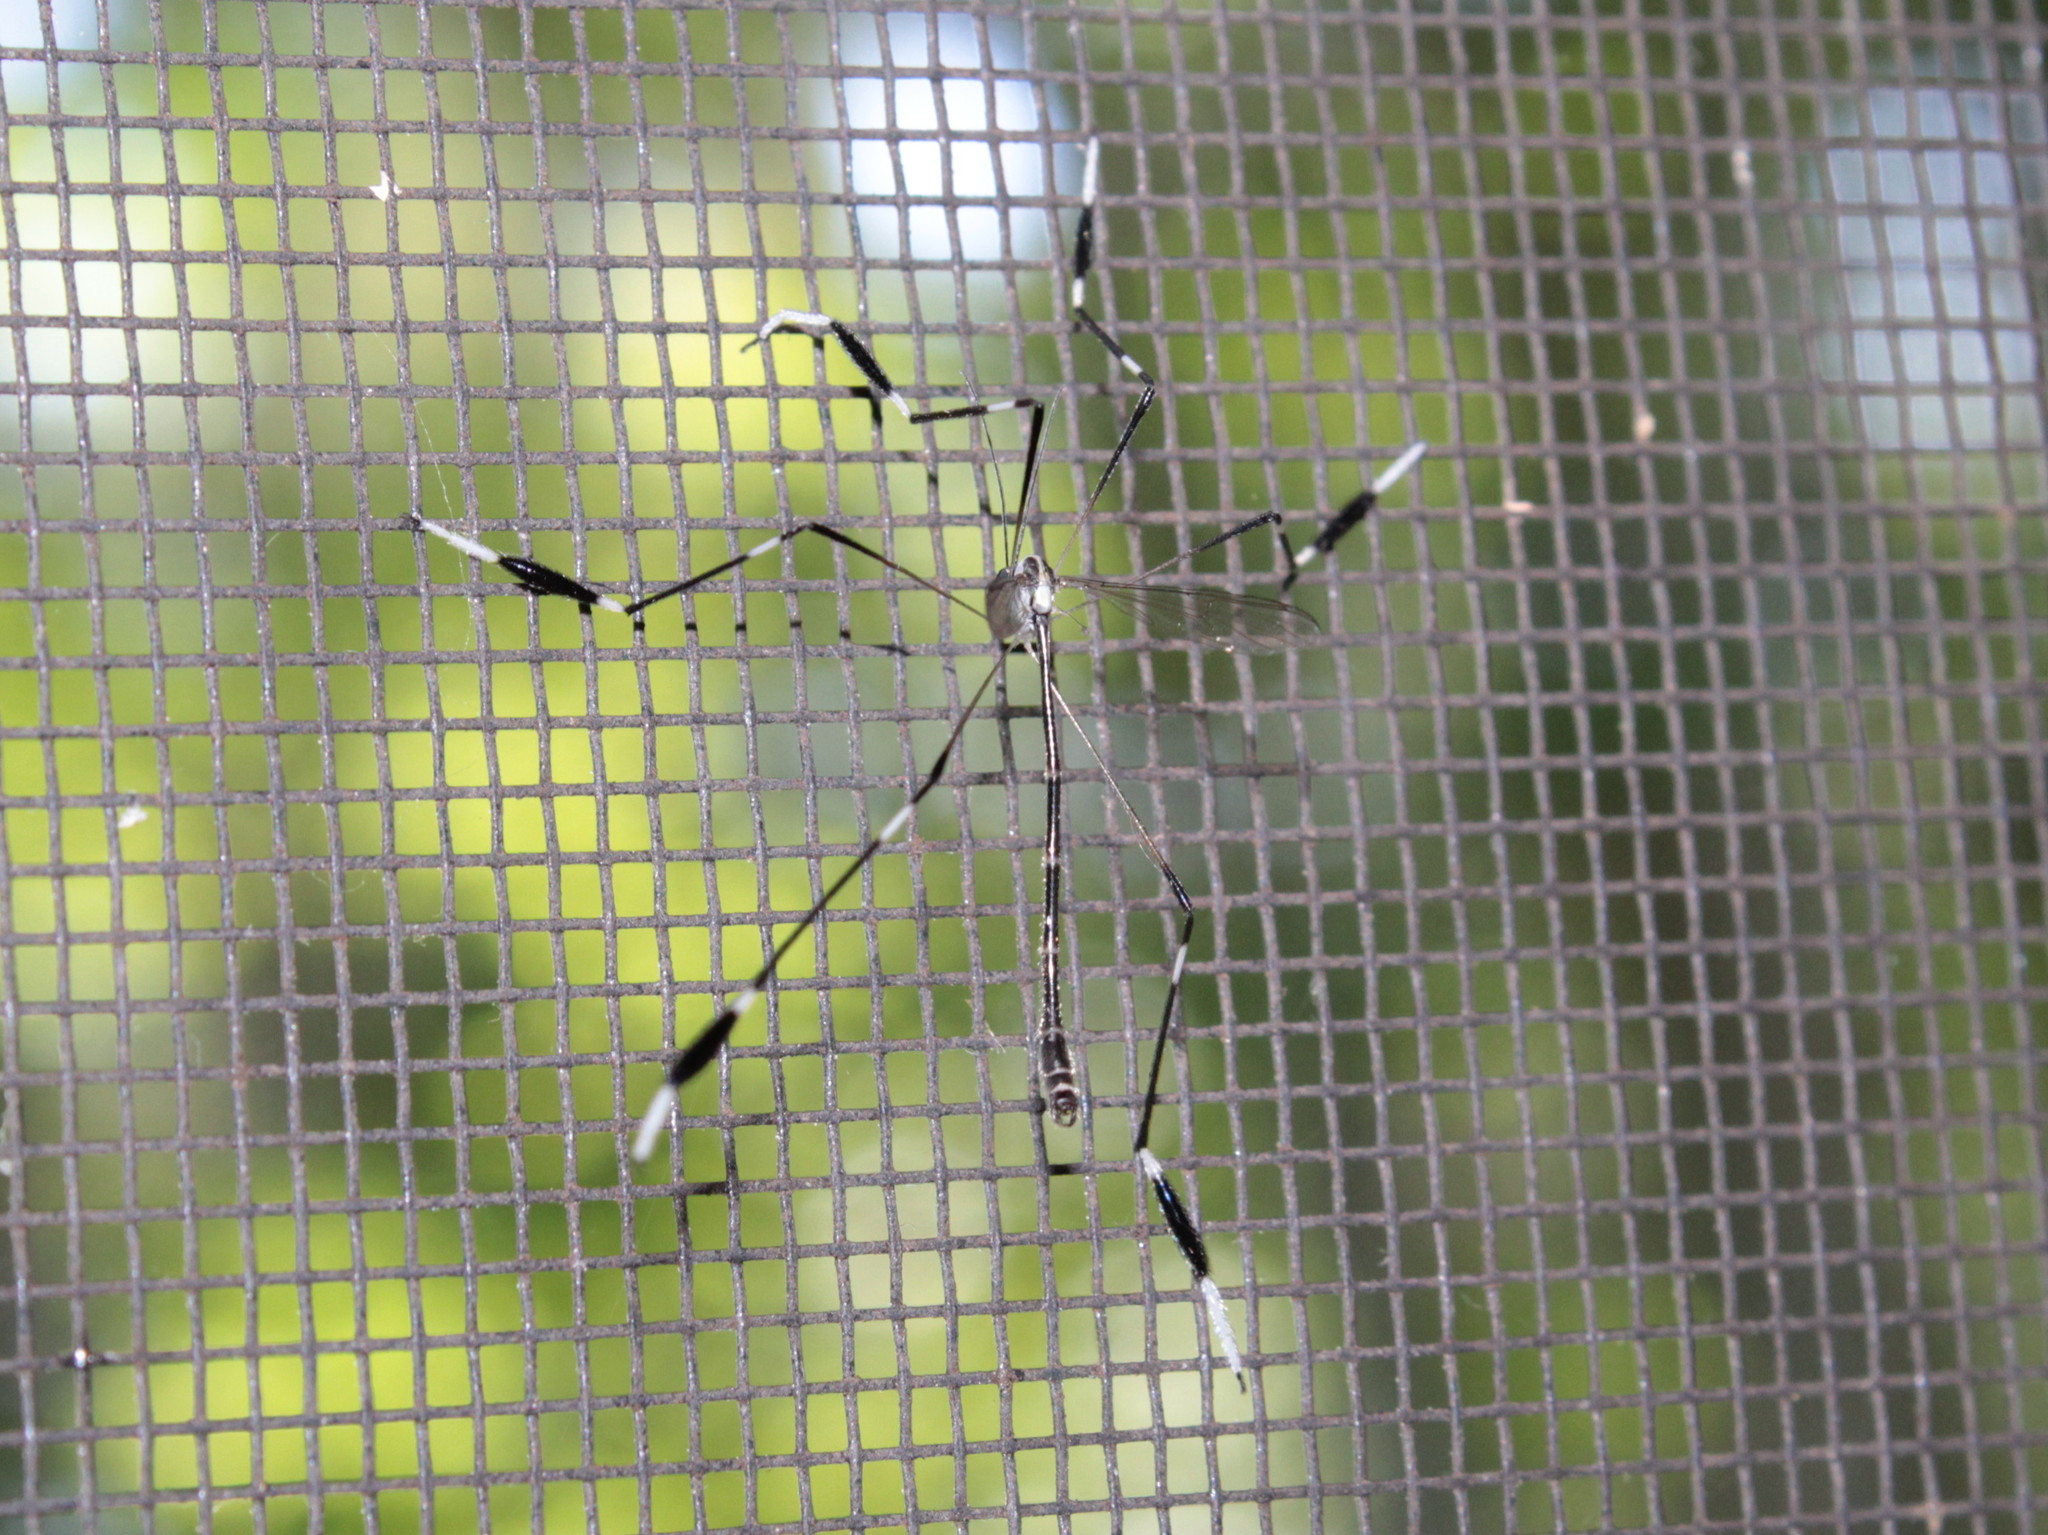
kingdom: Animalia
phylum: Arthropoda
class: Insecta
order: Diptera
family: Ptychopteridae
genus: Bittacomorpha
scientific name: Bittacomorpha clavipes
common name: Eastern phantom crane fly
